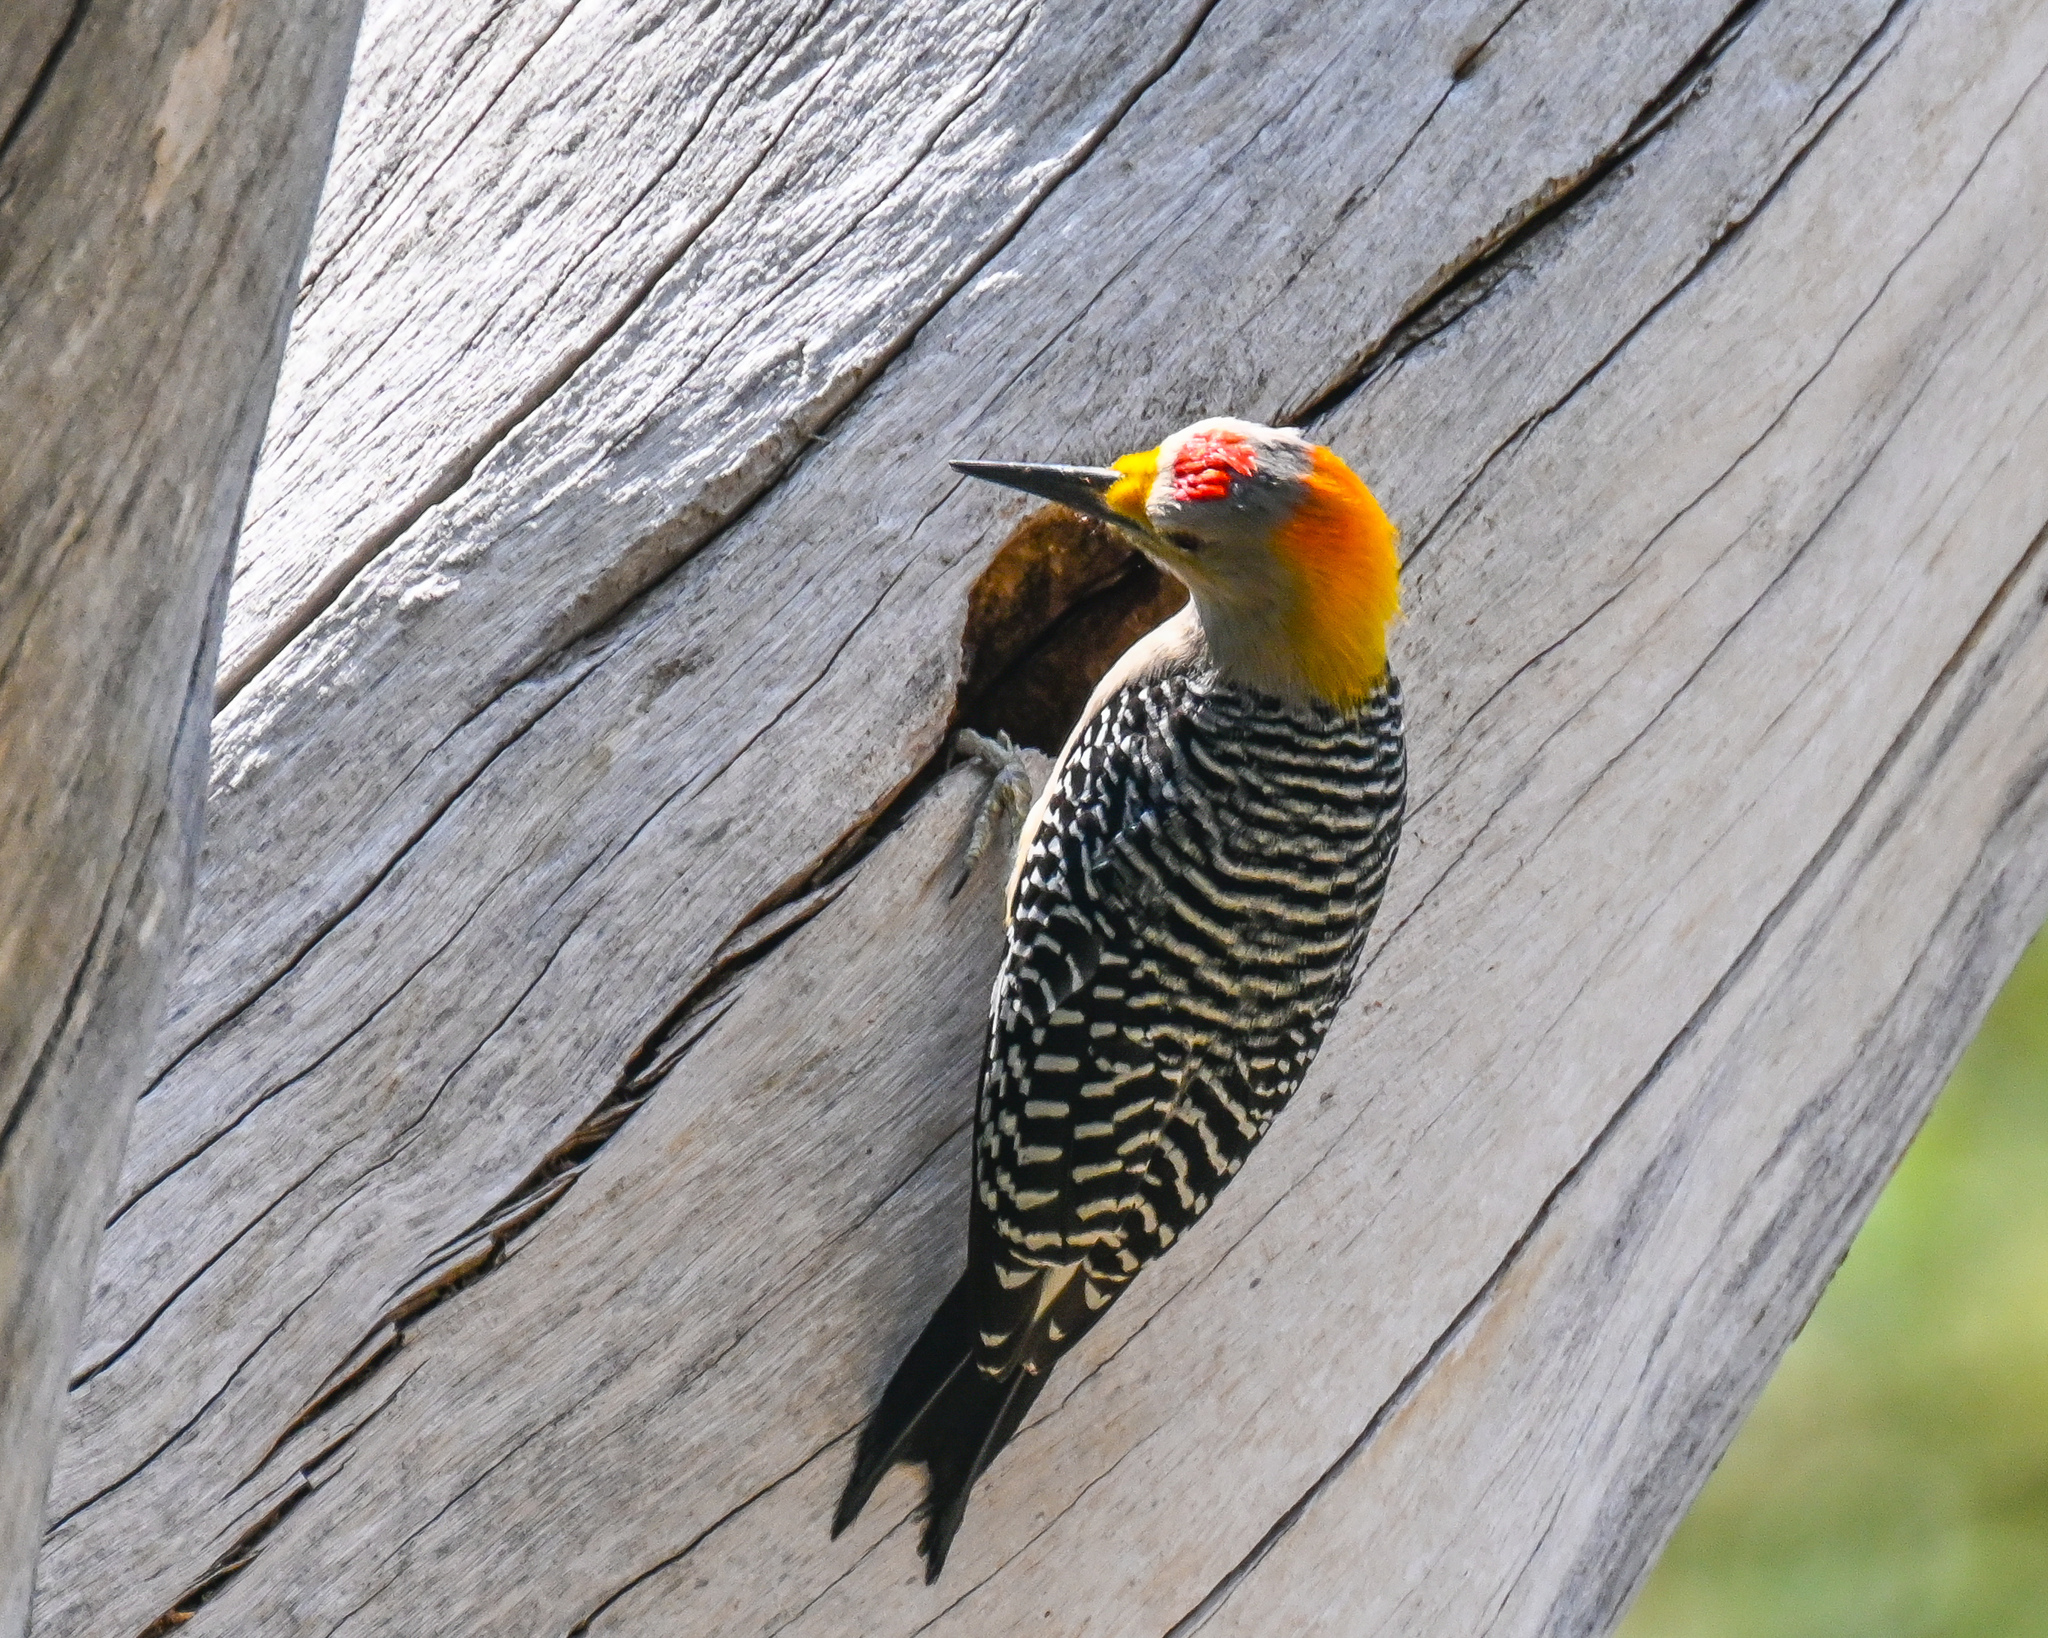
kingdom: Animalia
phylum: Chordata
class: Aves
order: Piciformes
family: Picidae
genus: Melanerpes
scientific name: Melanerpes aurifrons
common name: Golden-fronted woodpecker
